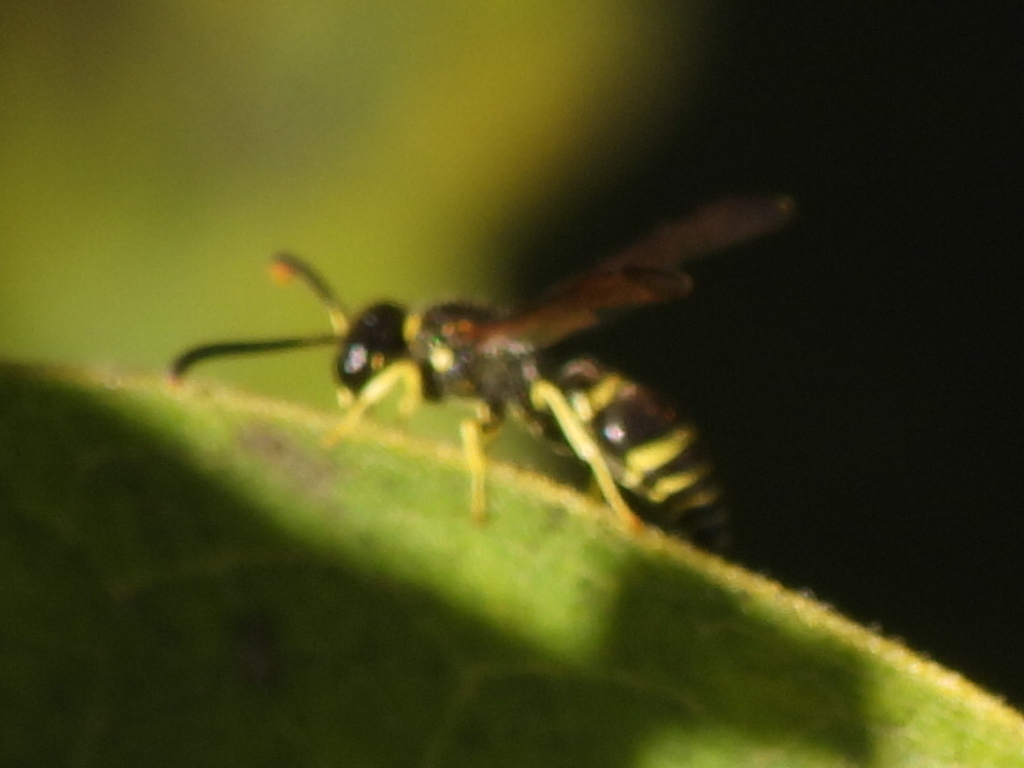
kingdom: Animalia
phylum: Arthropoda
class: Insecta
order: Hymenoptera
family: Vespidae
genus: Ancistrocerus
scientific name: Ancistrocerus adiabatus
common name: Bramble mason wasp
